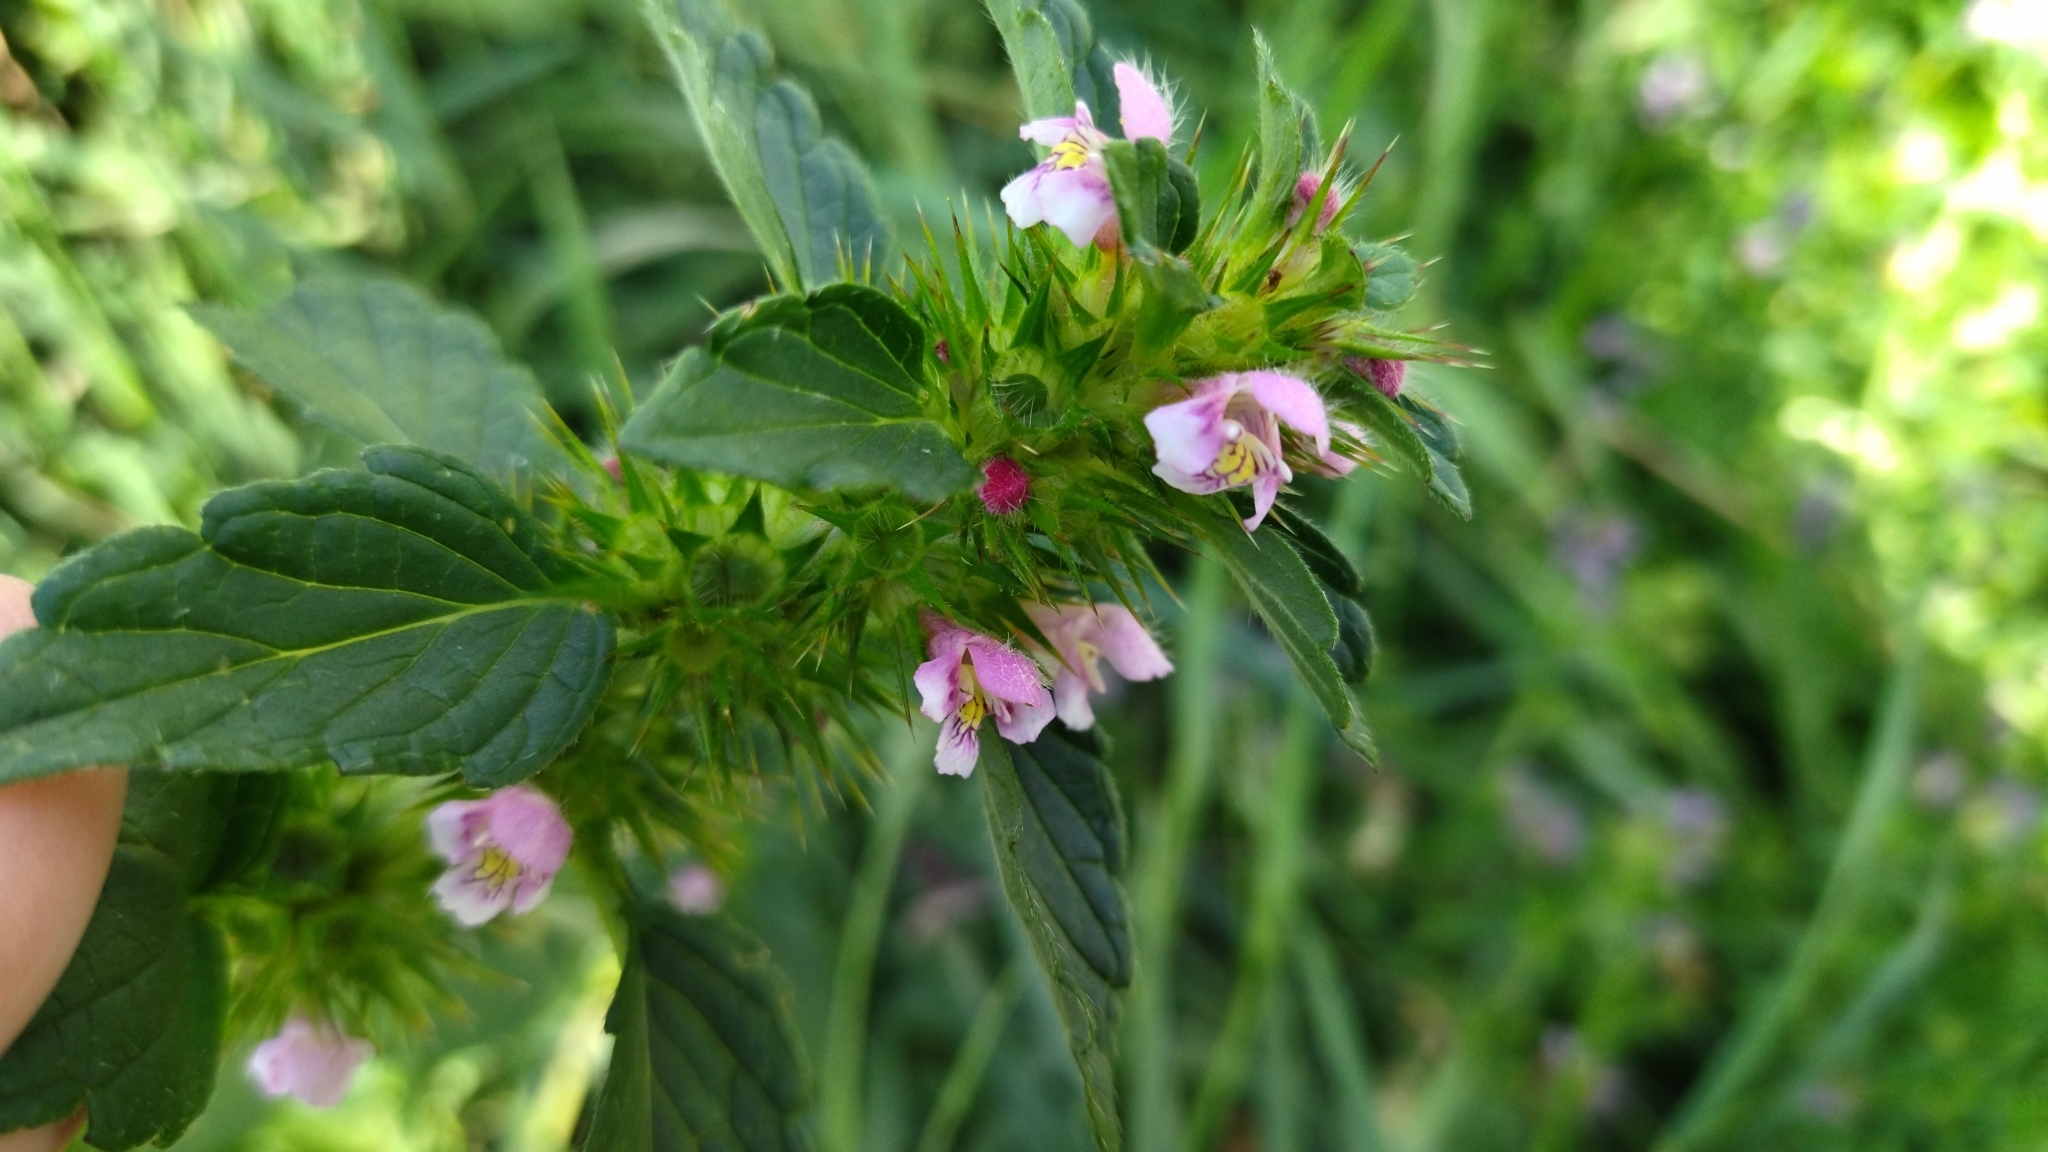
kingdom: Plantae
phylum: Tracheophyta
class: Magnoliopsida
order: Lamiales
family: Lamiaceae
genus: Galeopsis
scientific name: Galeopsis tetrahit
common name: Common hemp-nettle
